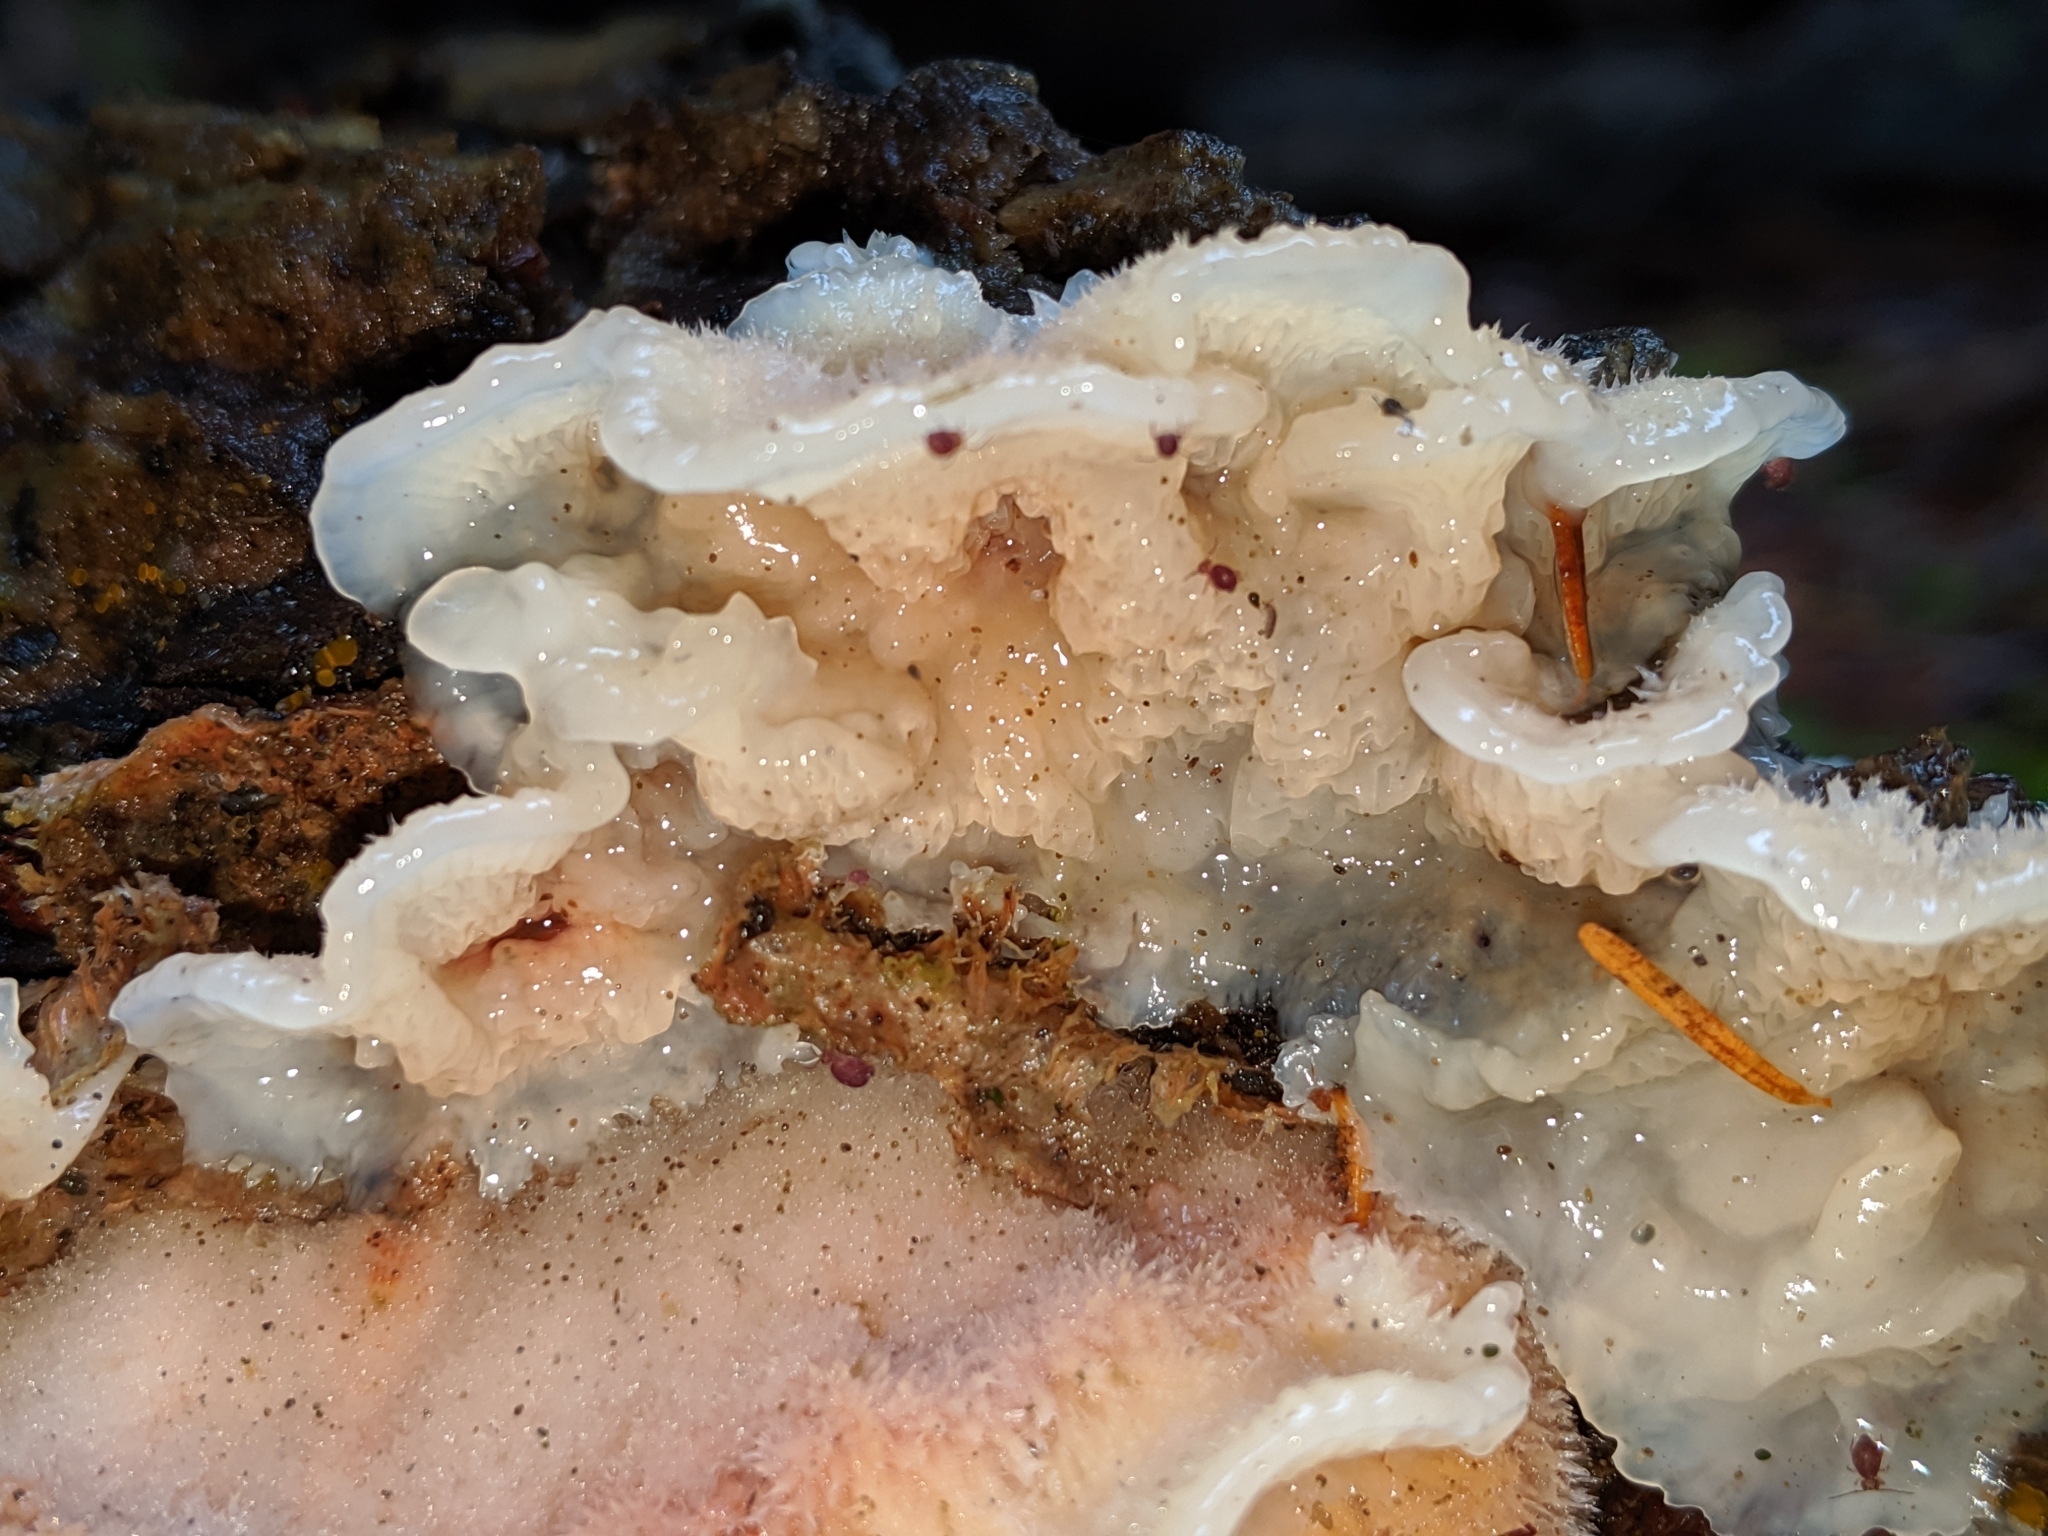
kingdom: Fungi
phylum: Basidiomycota
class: Agaricomycetes
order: Polyporales
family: Meruliaceae
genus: Phlebia
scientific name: Phlebia tremellosa
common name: Jelly rot
